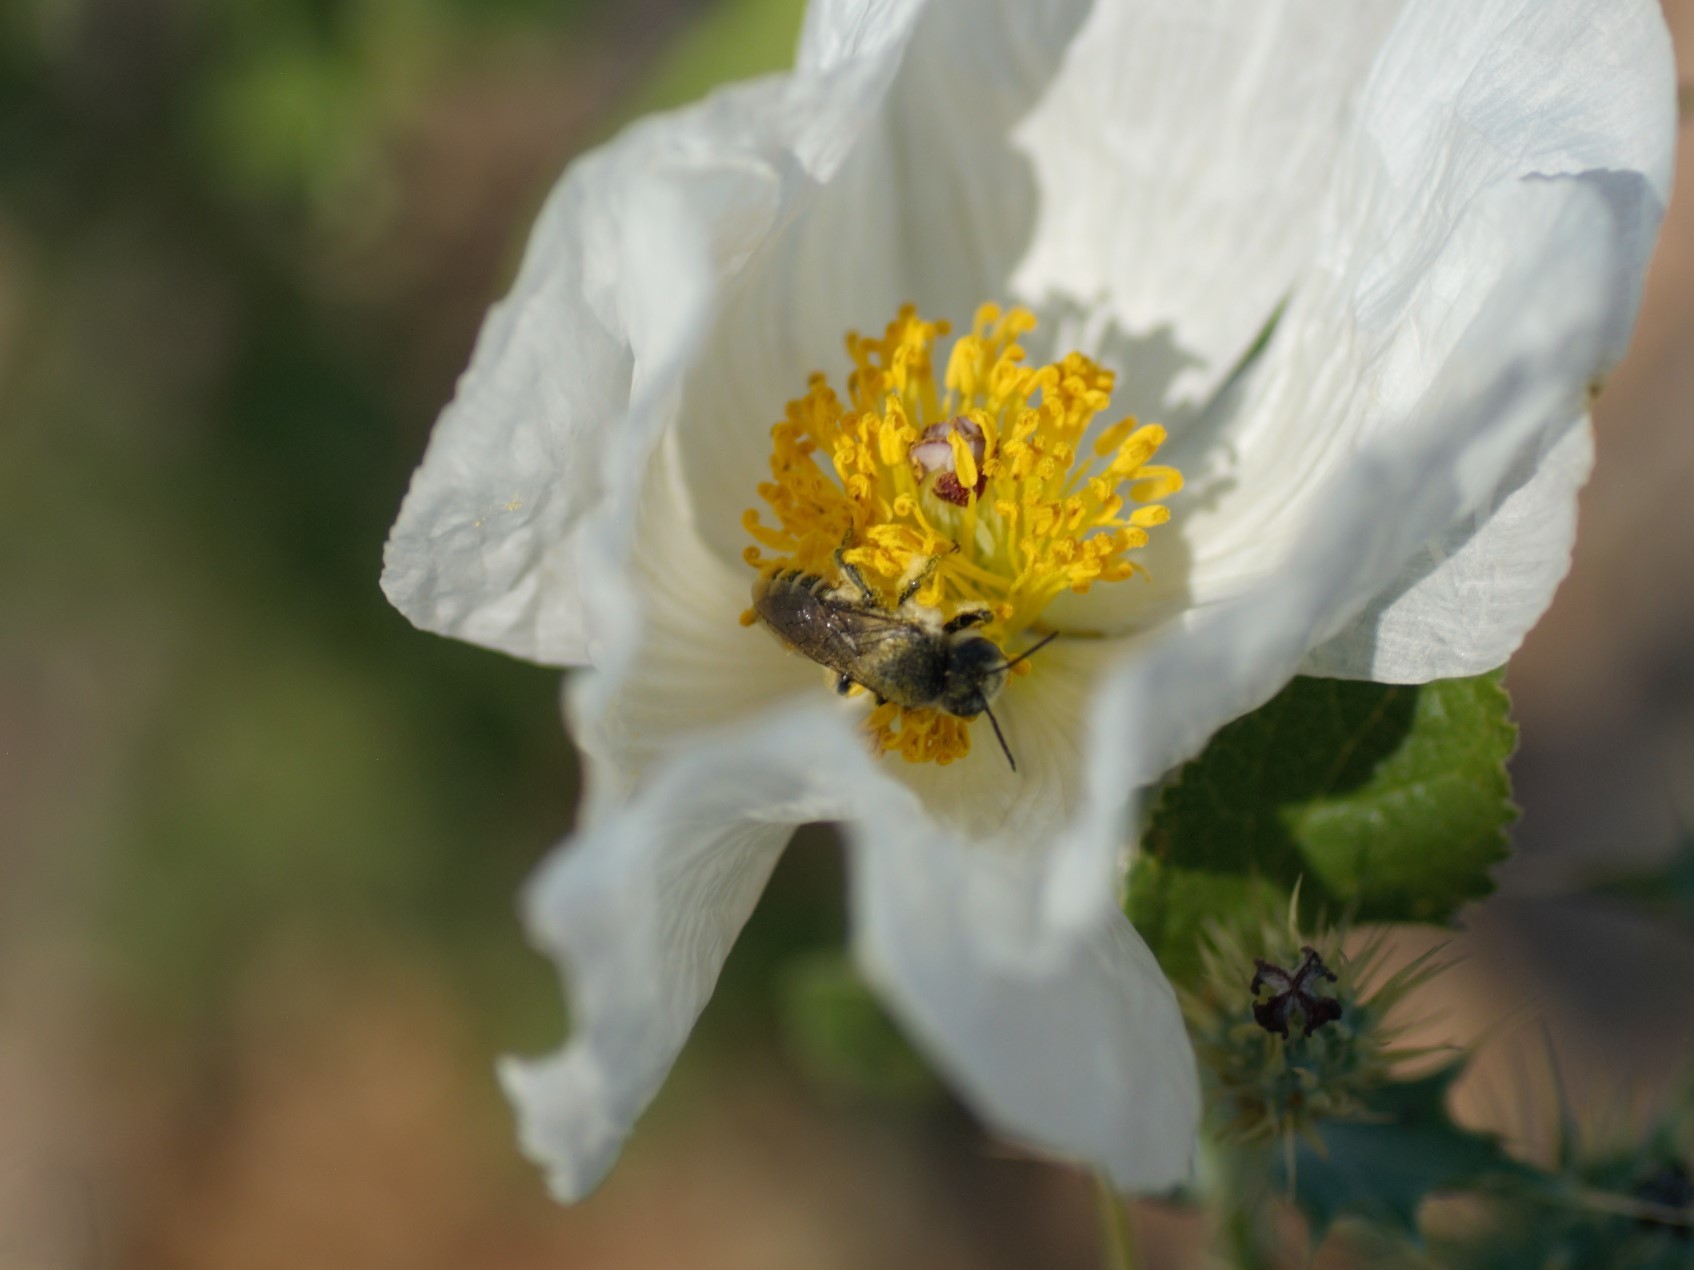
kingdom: Animalia
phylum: Arthropoda
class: Insecta
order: Hymenoptera
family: Megachilidae
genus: Lithurgopsis
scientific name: Lithurgopsis
